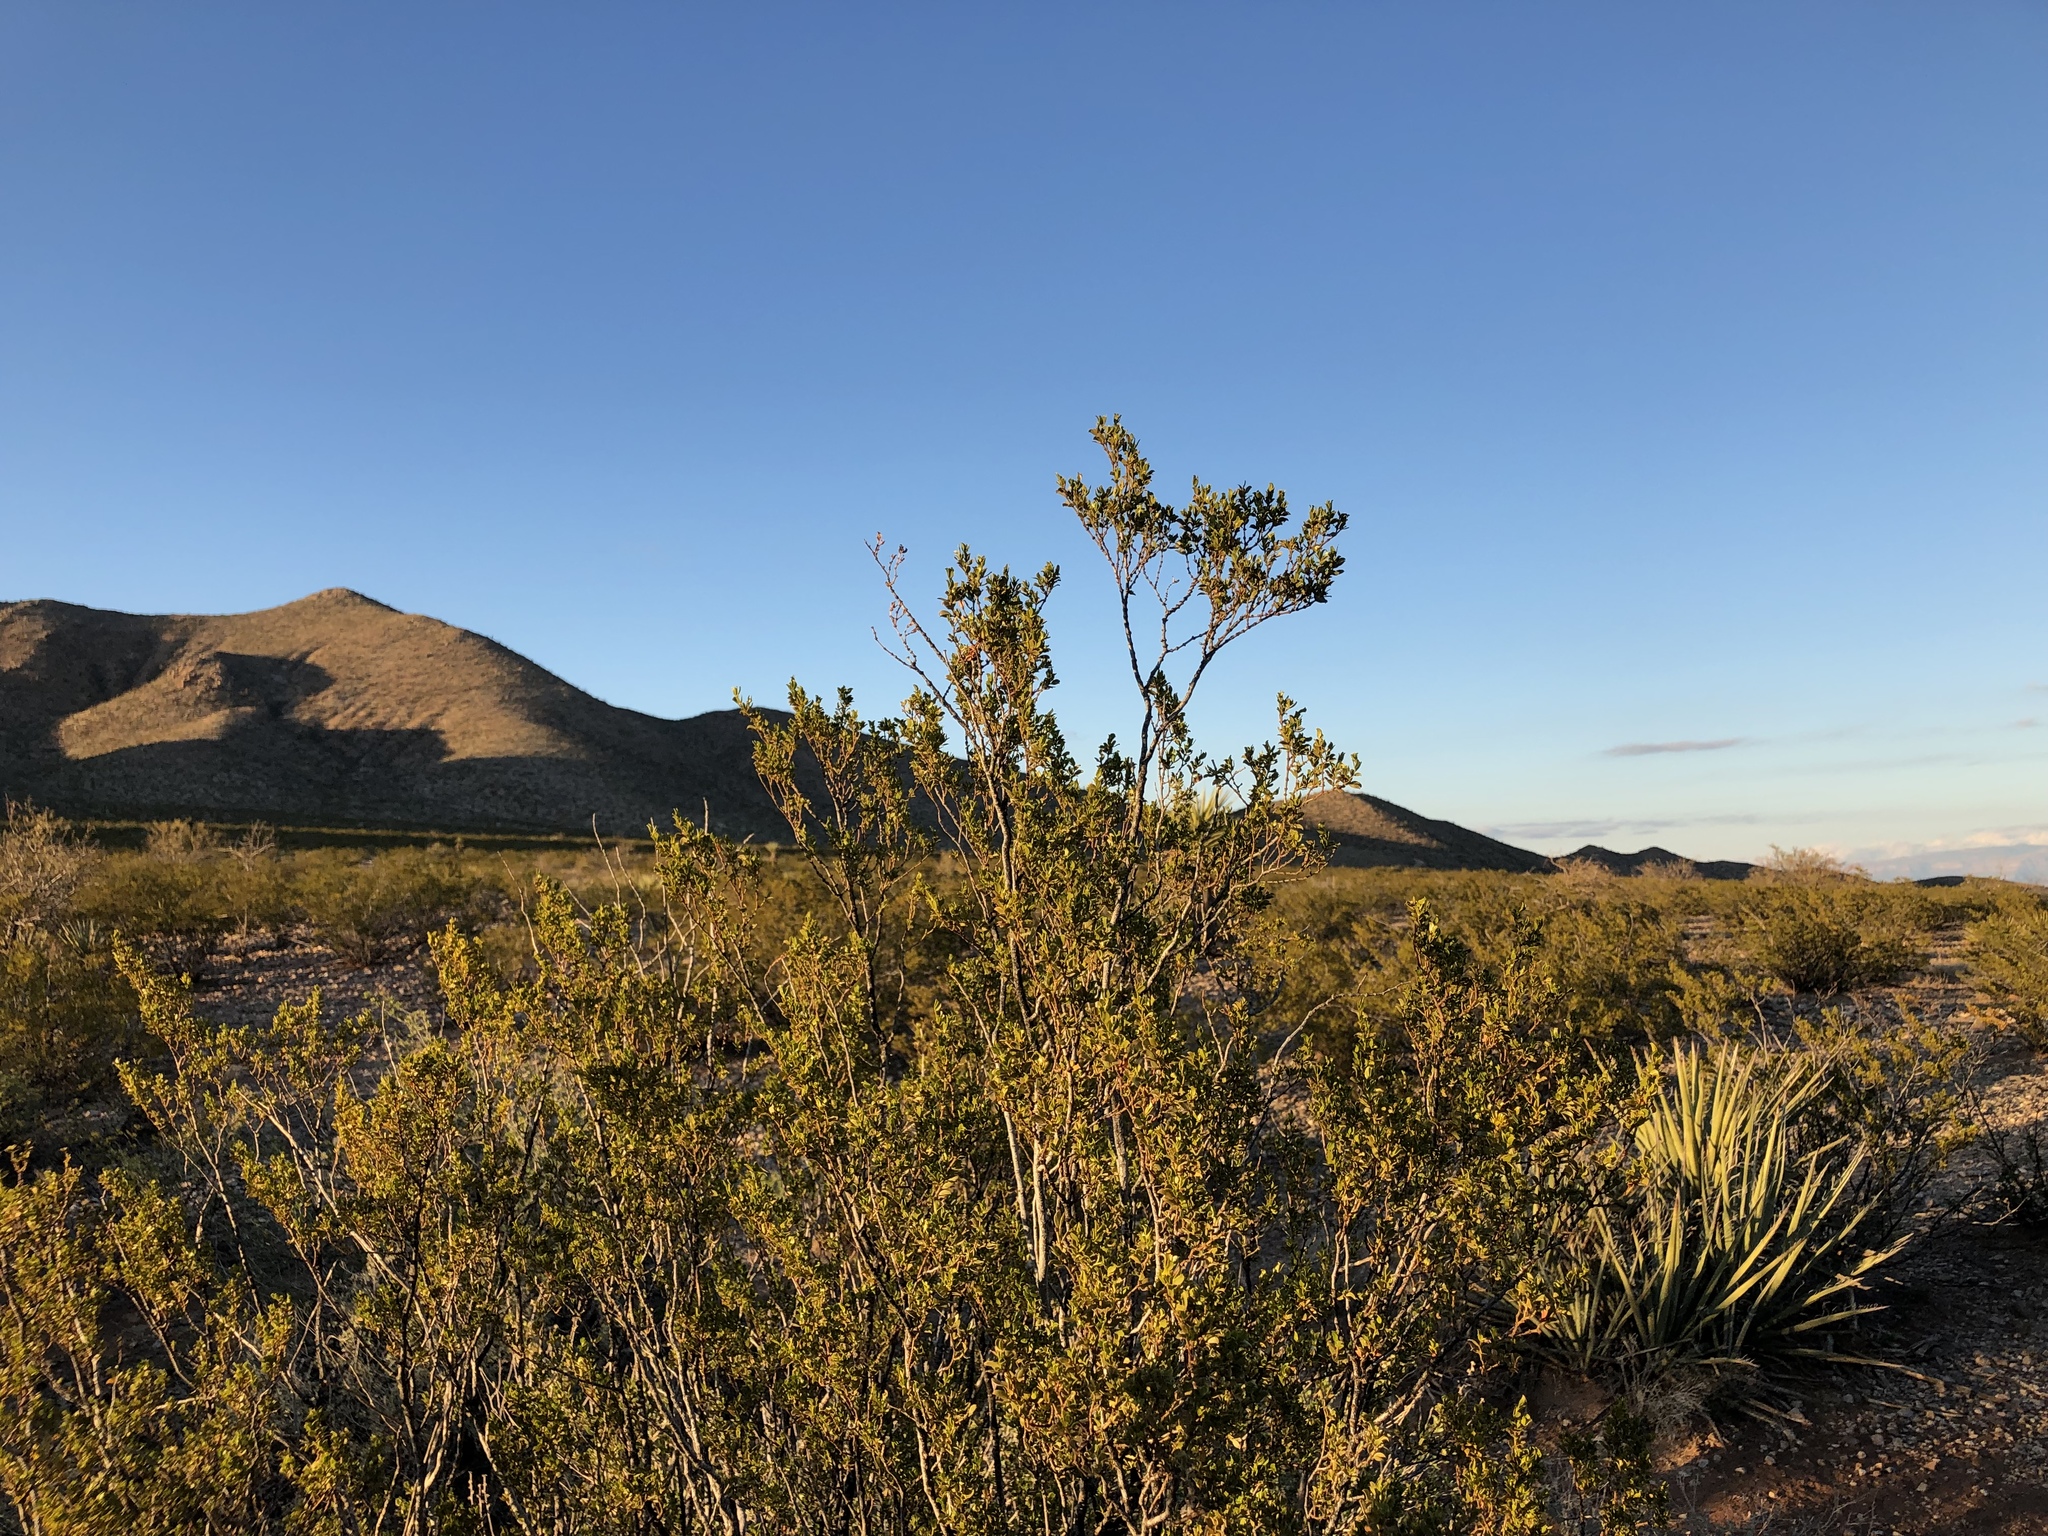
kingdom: Plantae
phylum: Tracheophyta
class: Magnoliopsida
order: Zygophyllales
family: Zygophyllaceae
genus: Larrea
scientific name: Larrea tridentata
